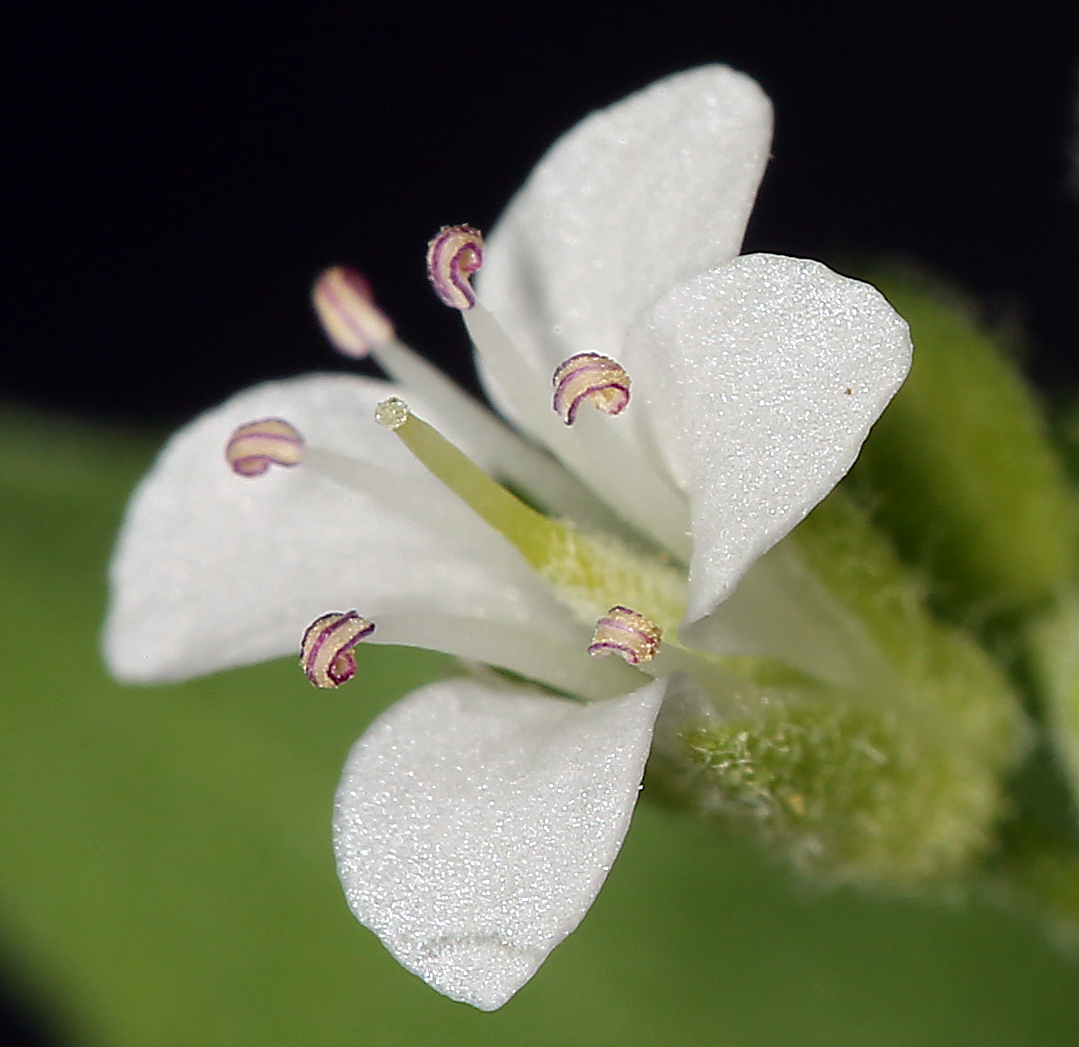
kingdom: Plantae
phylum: Tracheophyta
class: Magnoliopsida
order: Brassicales
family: Brassicaceae
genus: Halimolobos
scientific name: Halimolobos jaegeri
